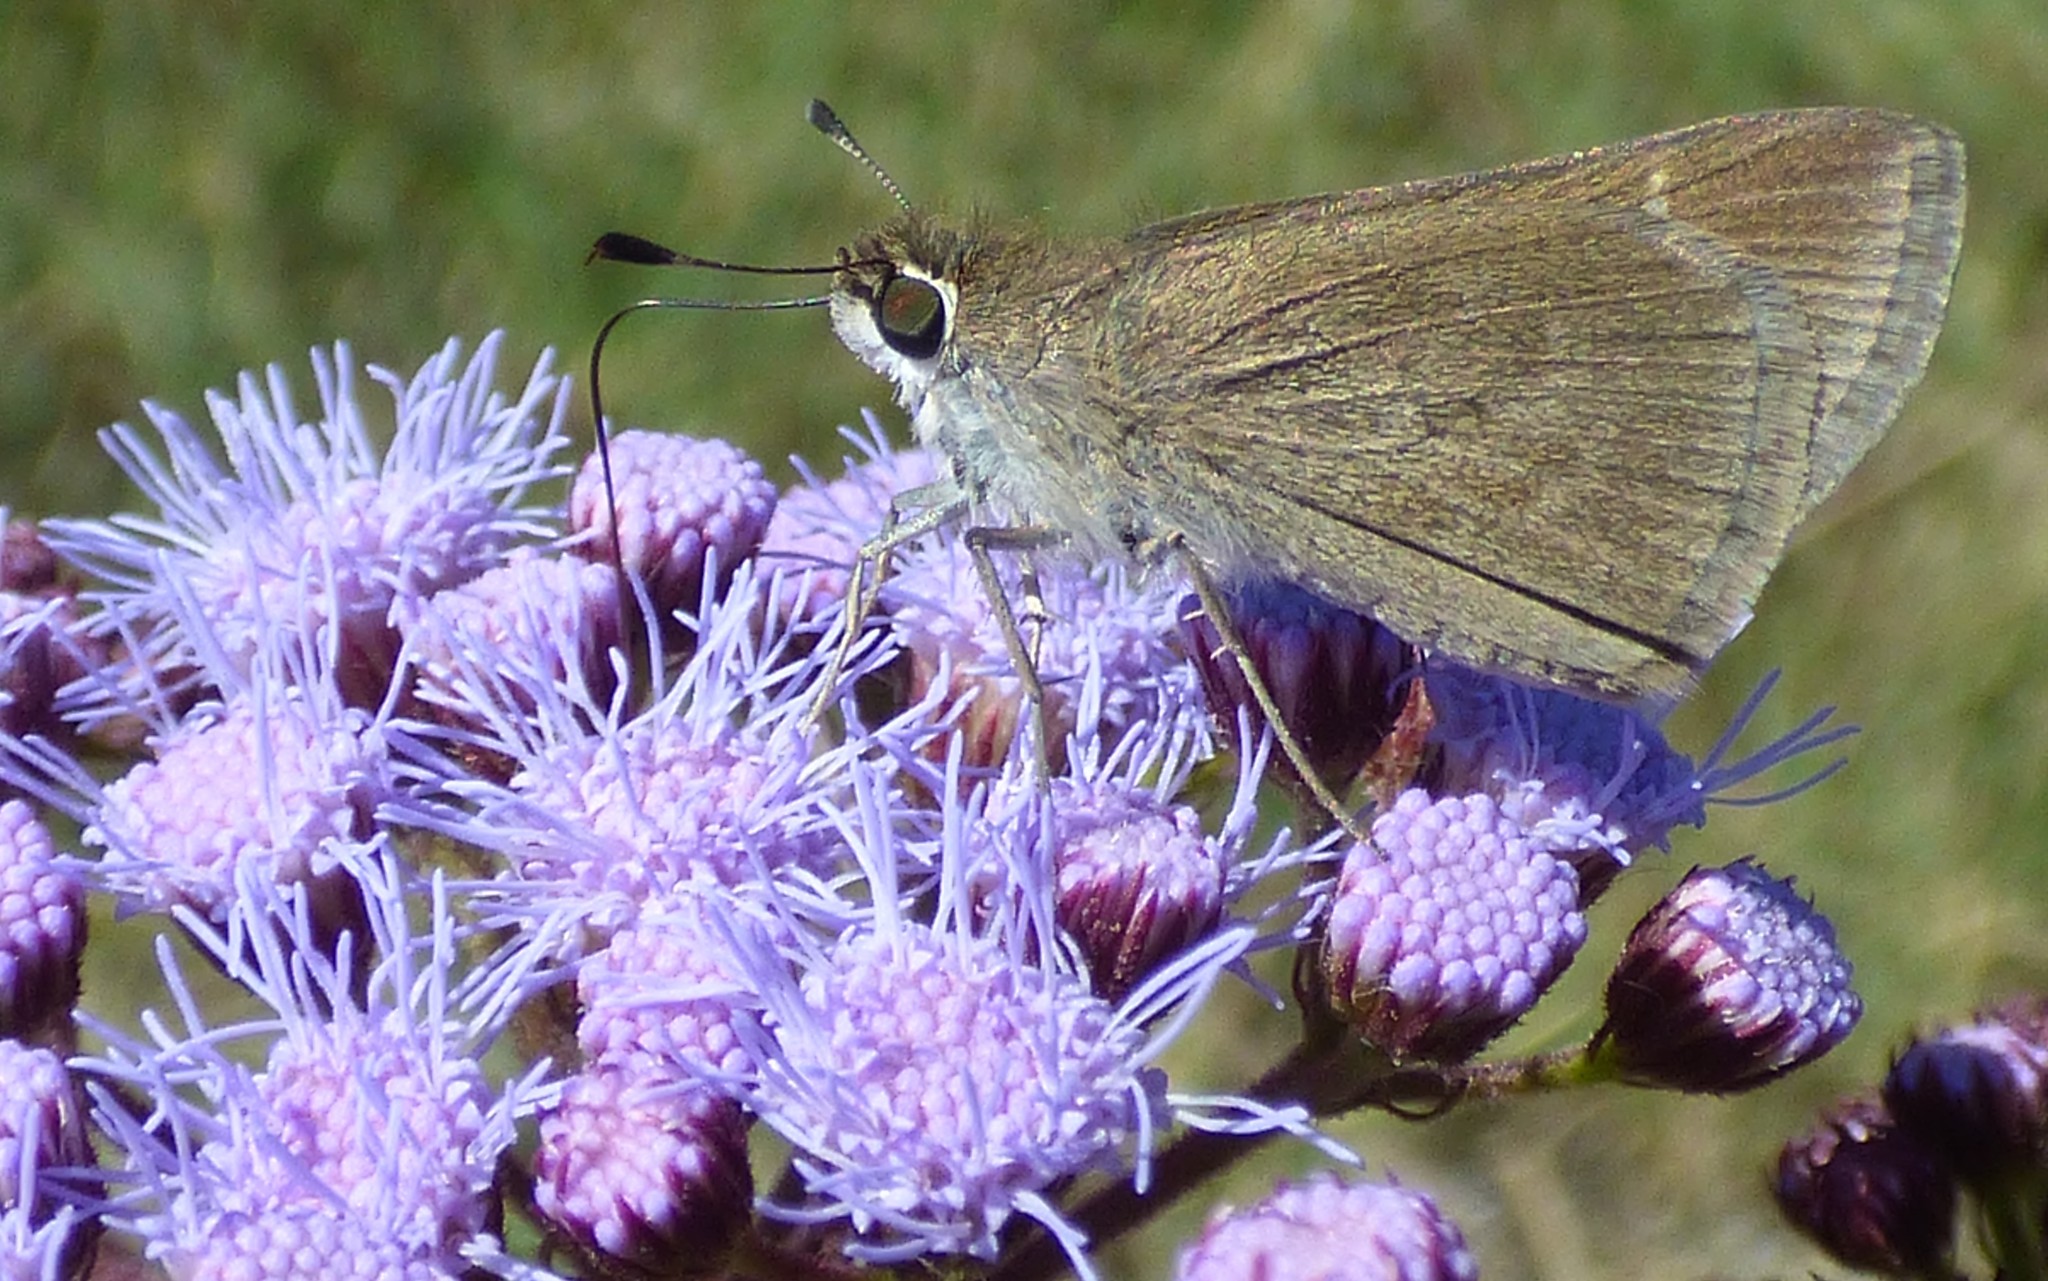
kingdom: Animalia
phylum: Arthropoda
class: Insecta
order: Lepidoptera
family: Hesperiidae
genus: Lerodea
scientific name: Lerodea eufala
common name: Eufala skipper
